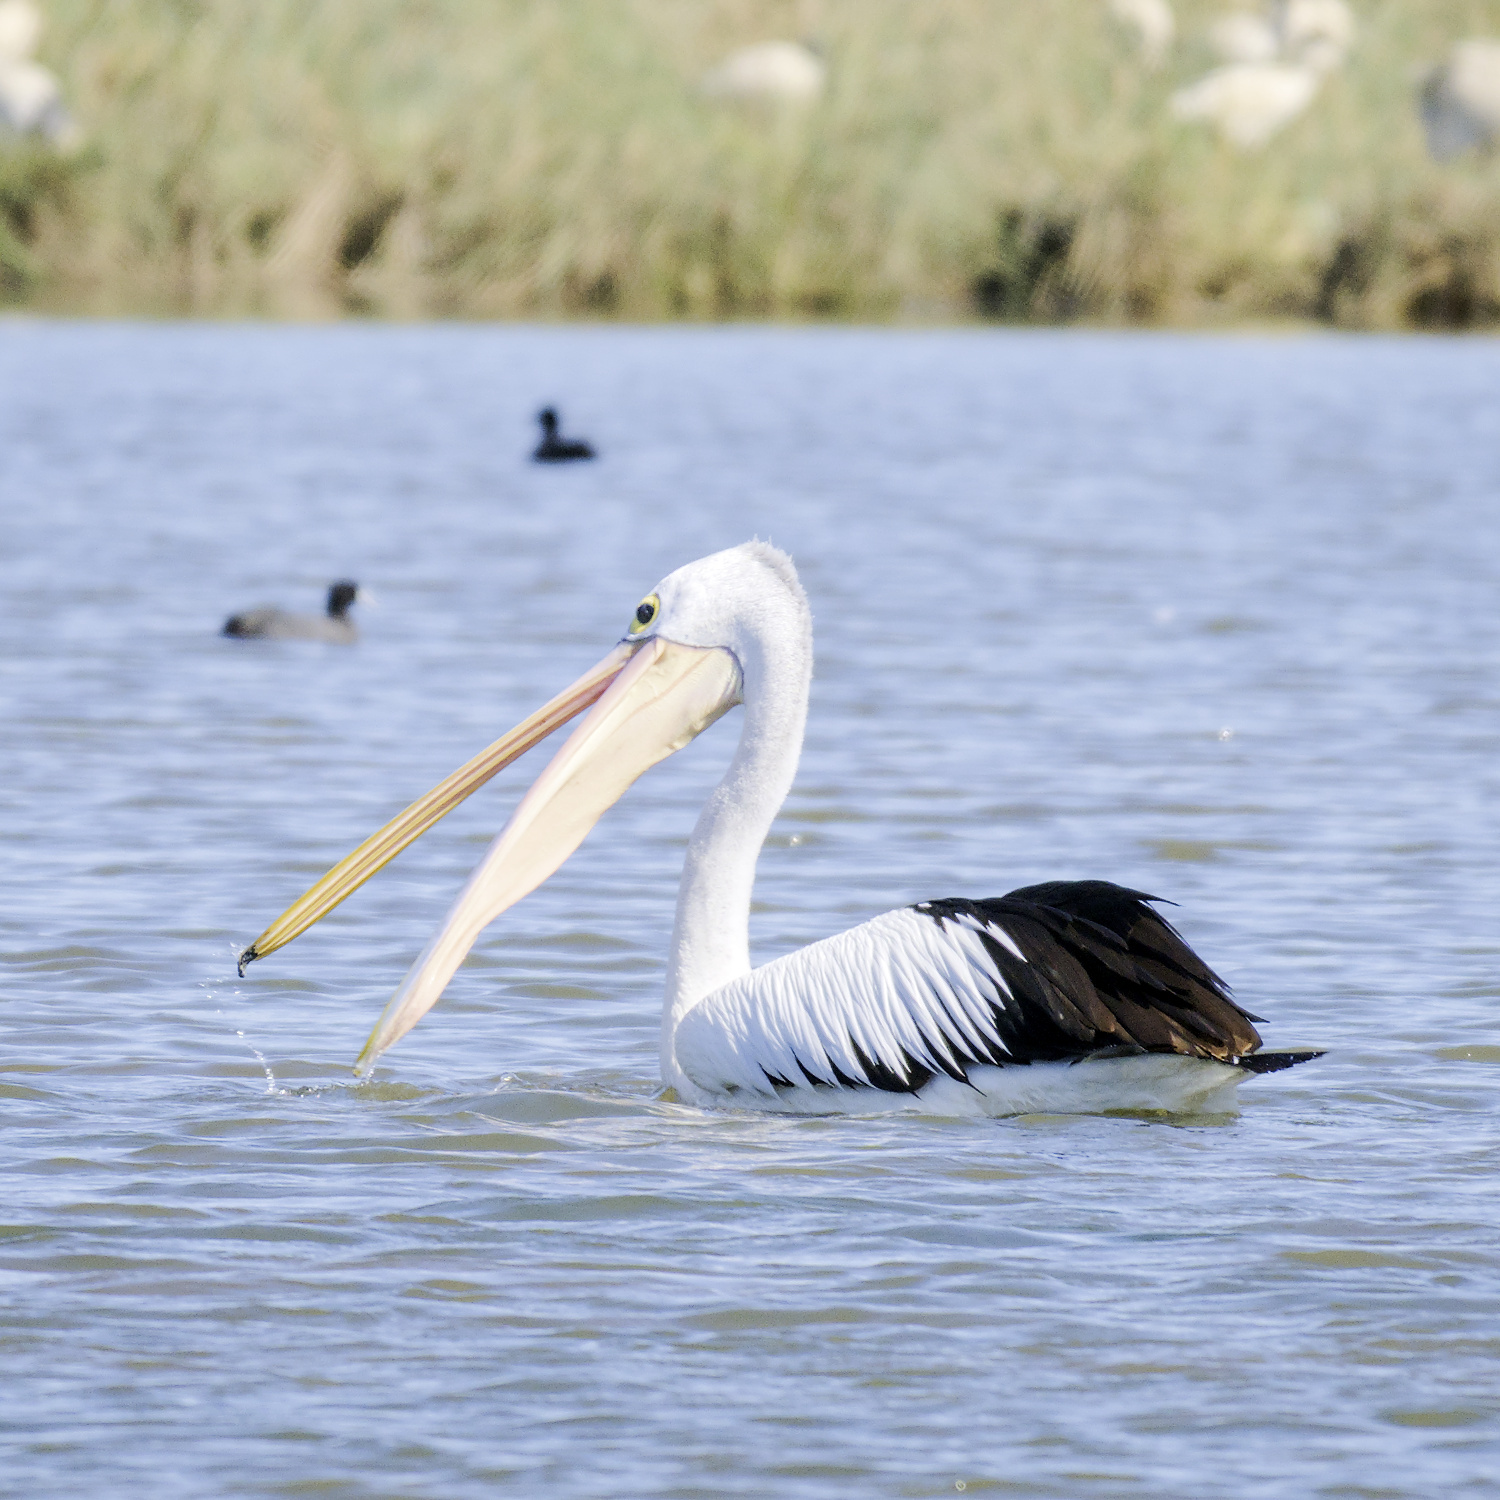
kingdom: Animalia
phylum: Chordata
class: Aves
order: Pelecaniformes
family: Pelecanidae
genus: Pelecanus
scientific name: Pelecanus conspicillatus
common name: Australian pelican
